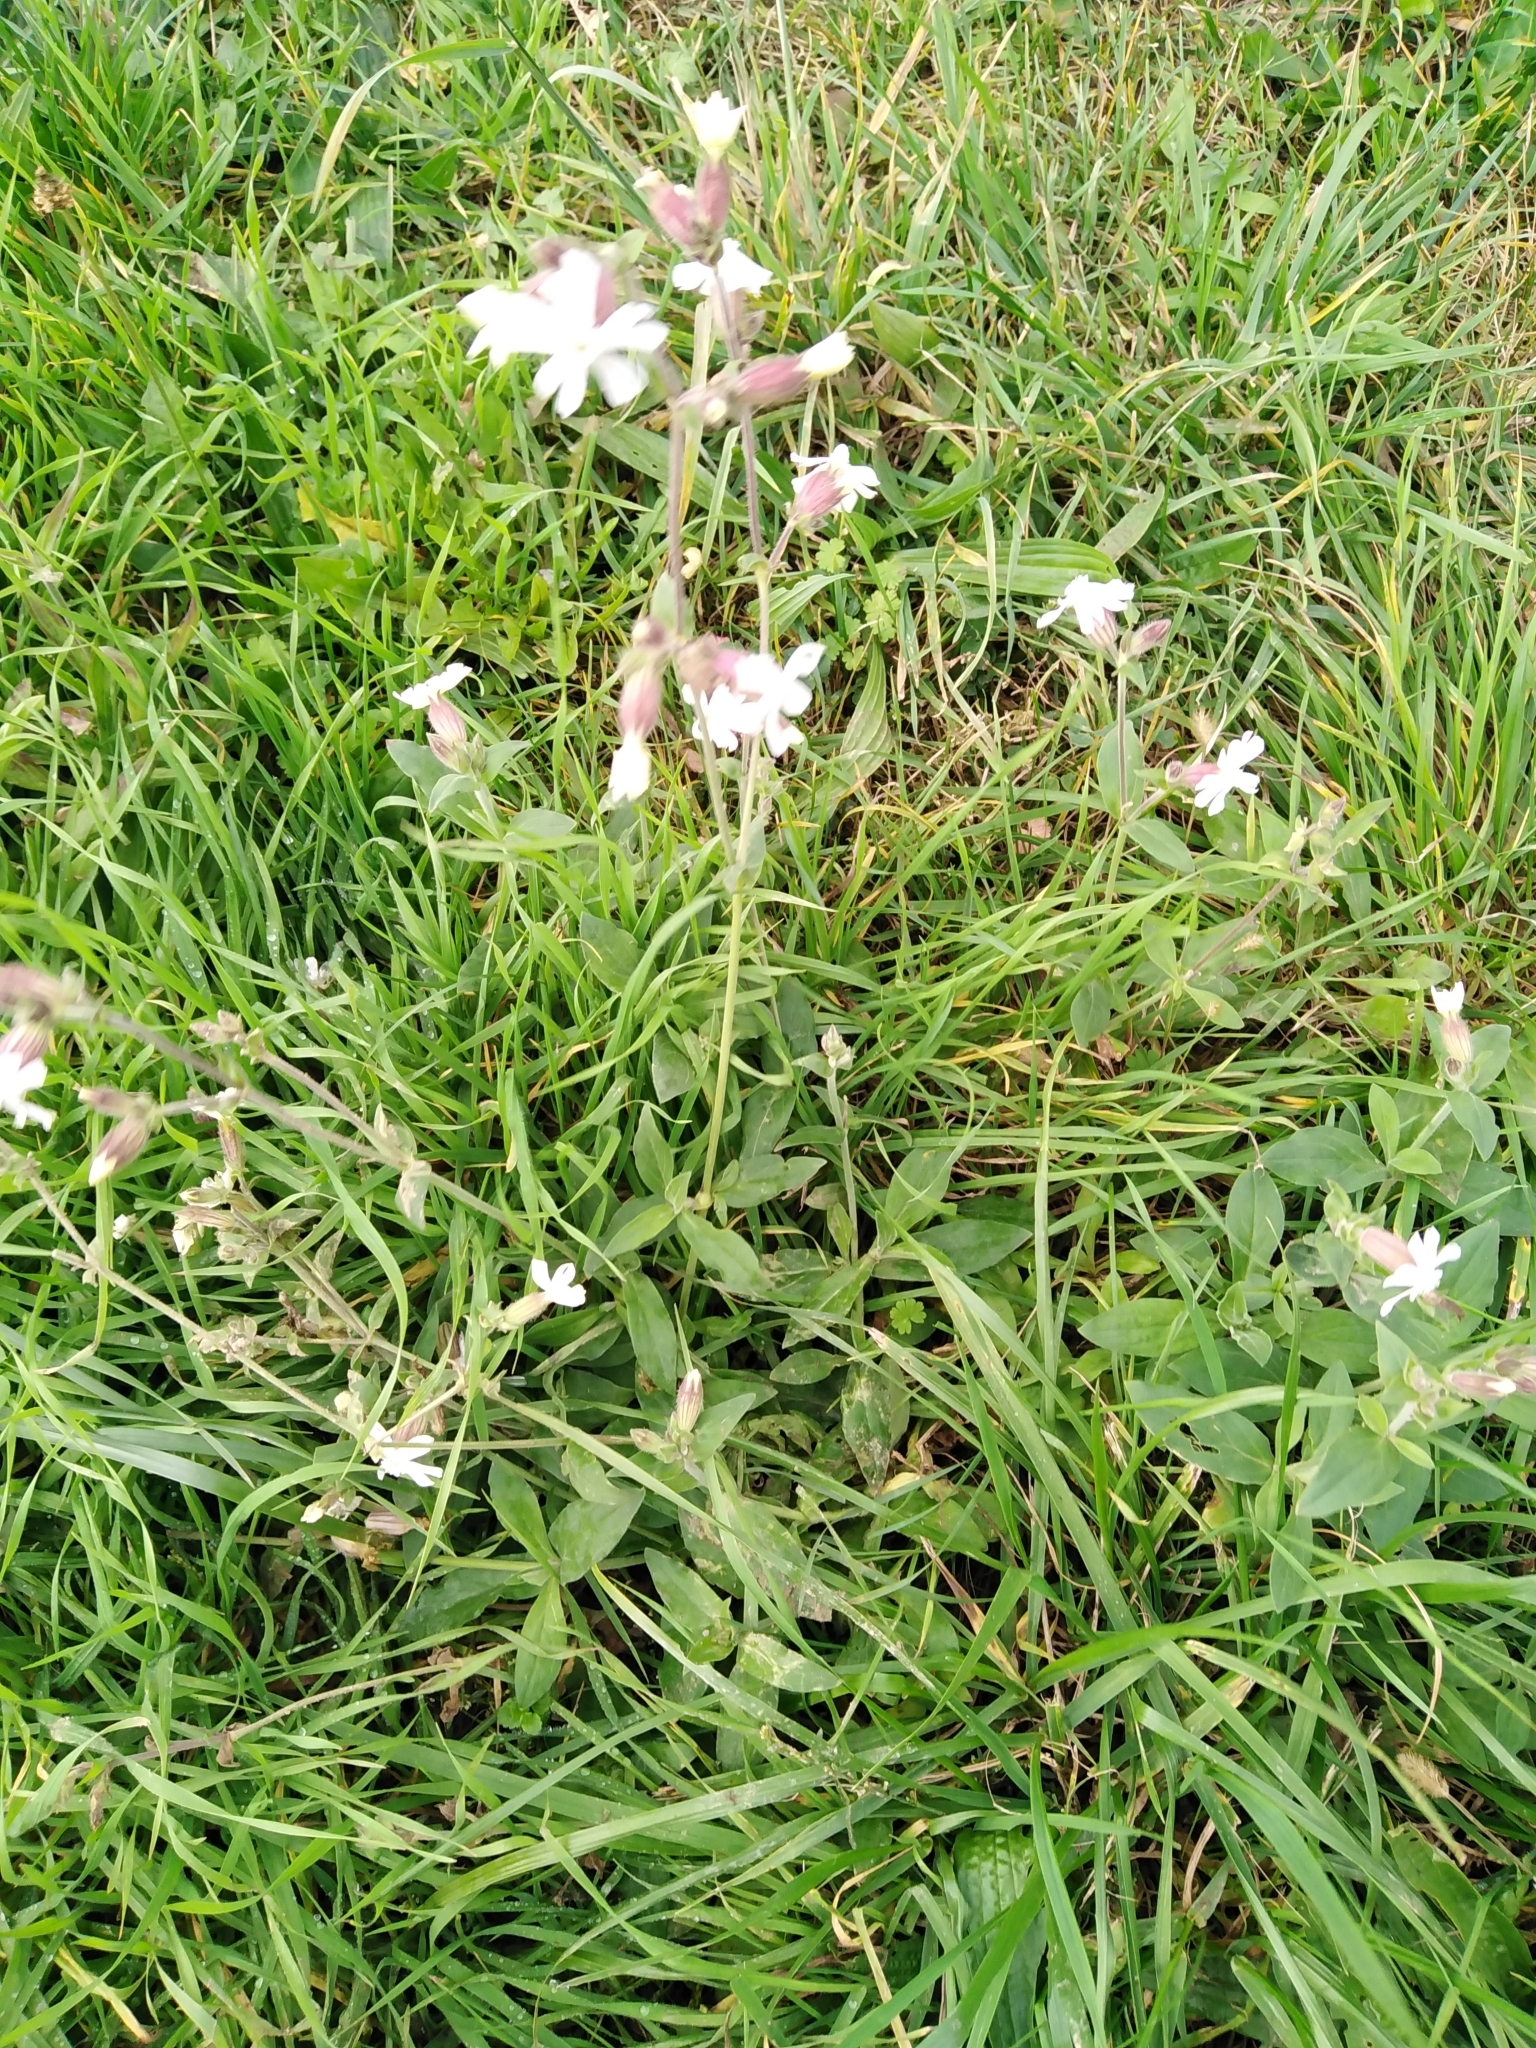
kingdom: Plantae
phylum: Tracheophyta
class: Magnoliopsida
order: Caryophyllales
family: Caryophyllaceae
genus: Silene
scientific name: Silene latifolia
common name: White campion
